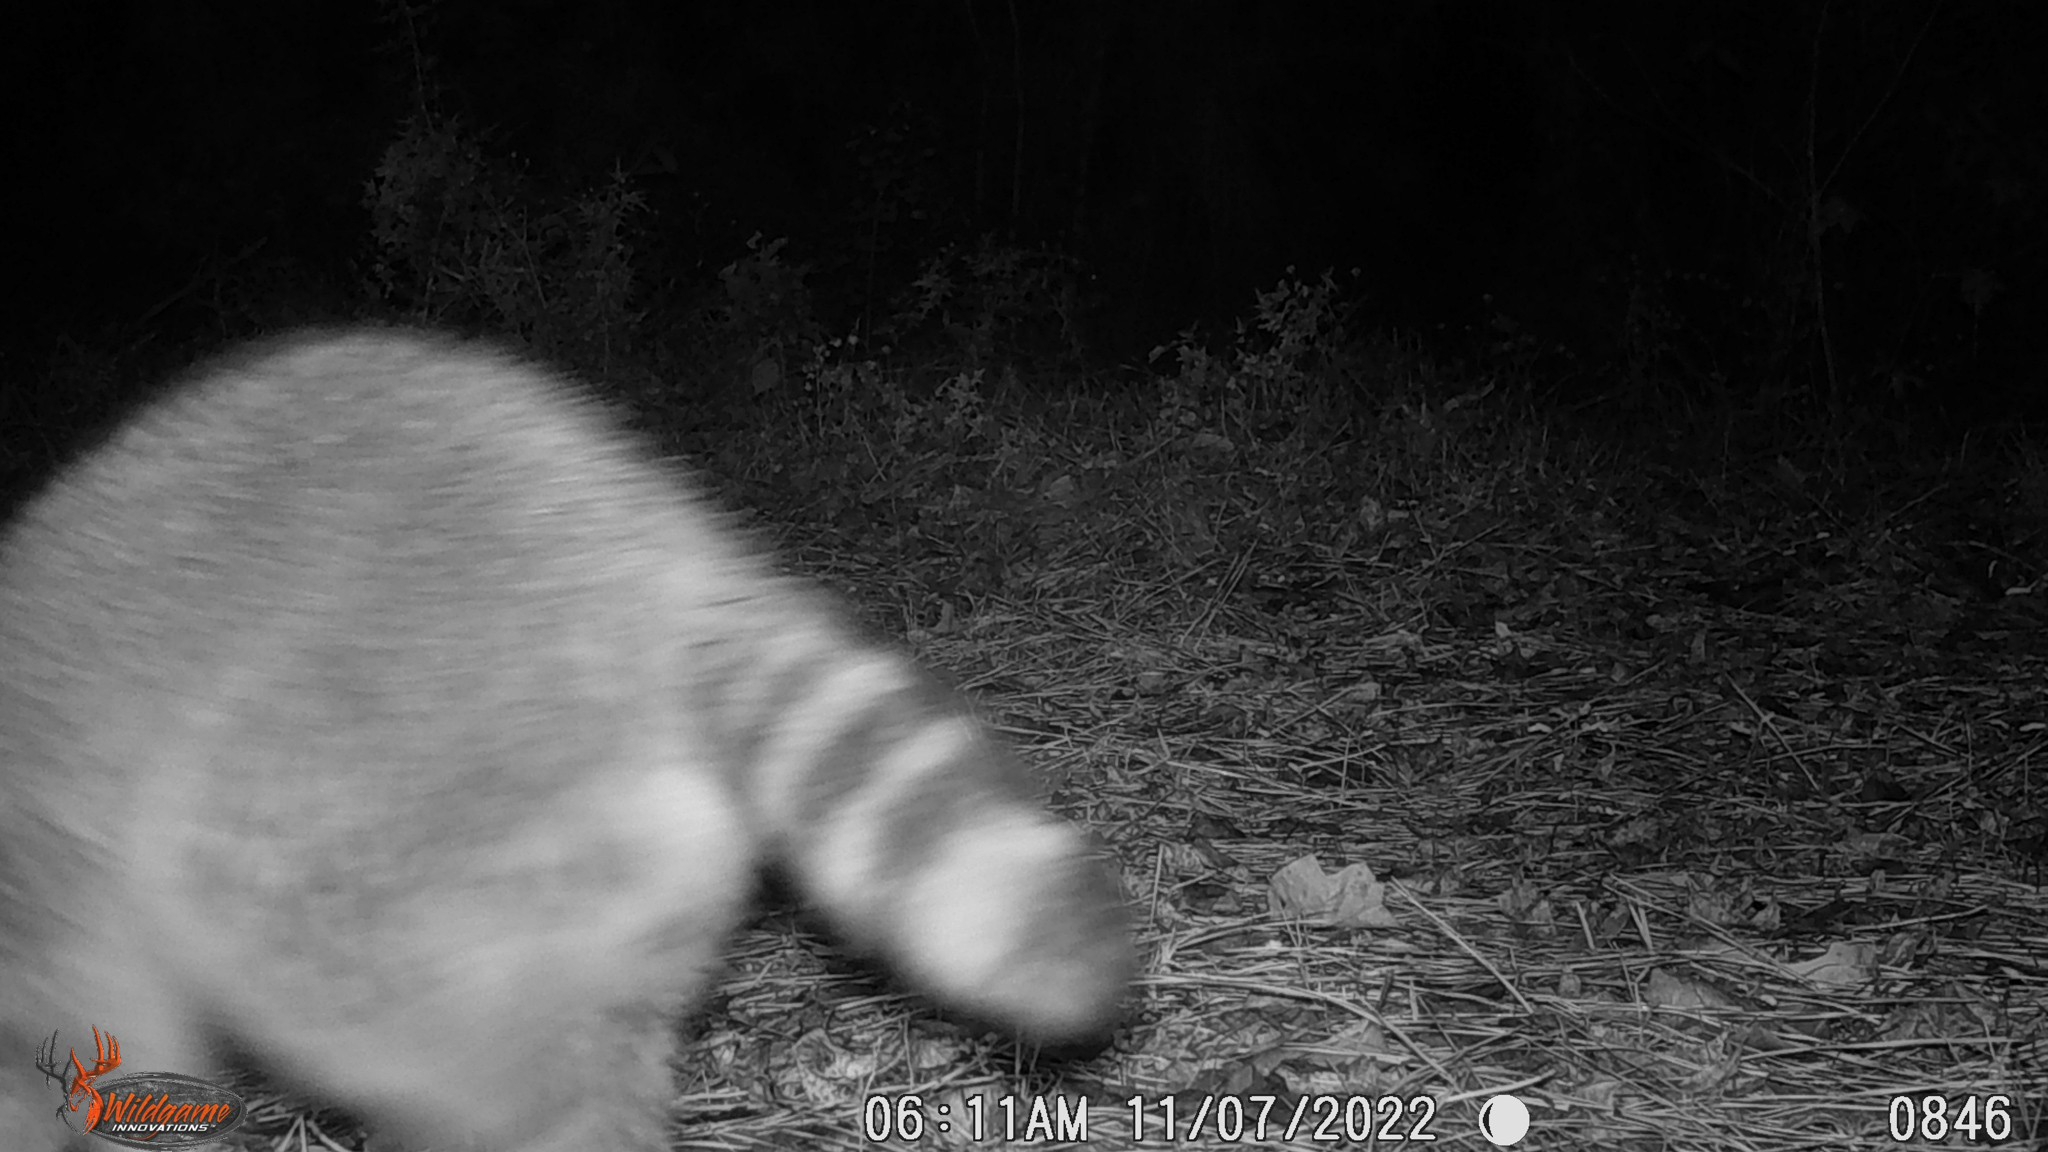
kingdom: Animalia
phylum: Chordata
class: Mammalia
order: Carnivora
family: Procyonidae
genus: Procyon
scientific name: Procyon lotor
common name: Raccoon
